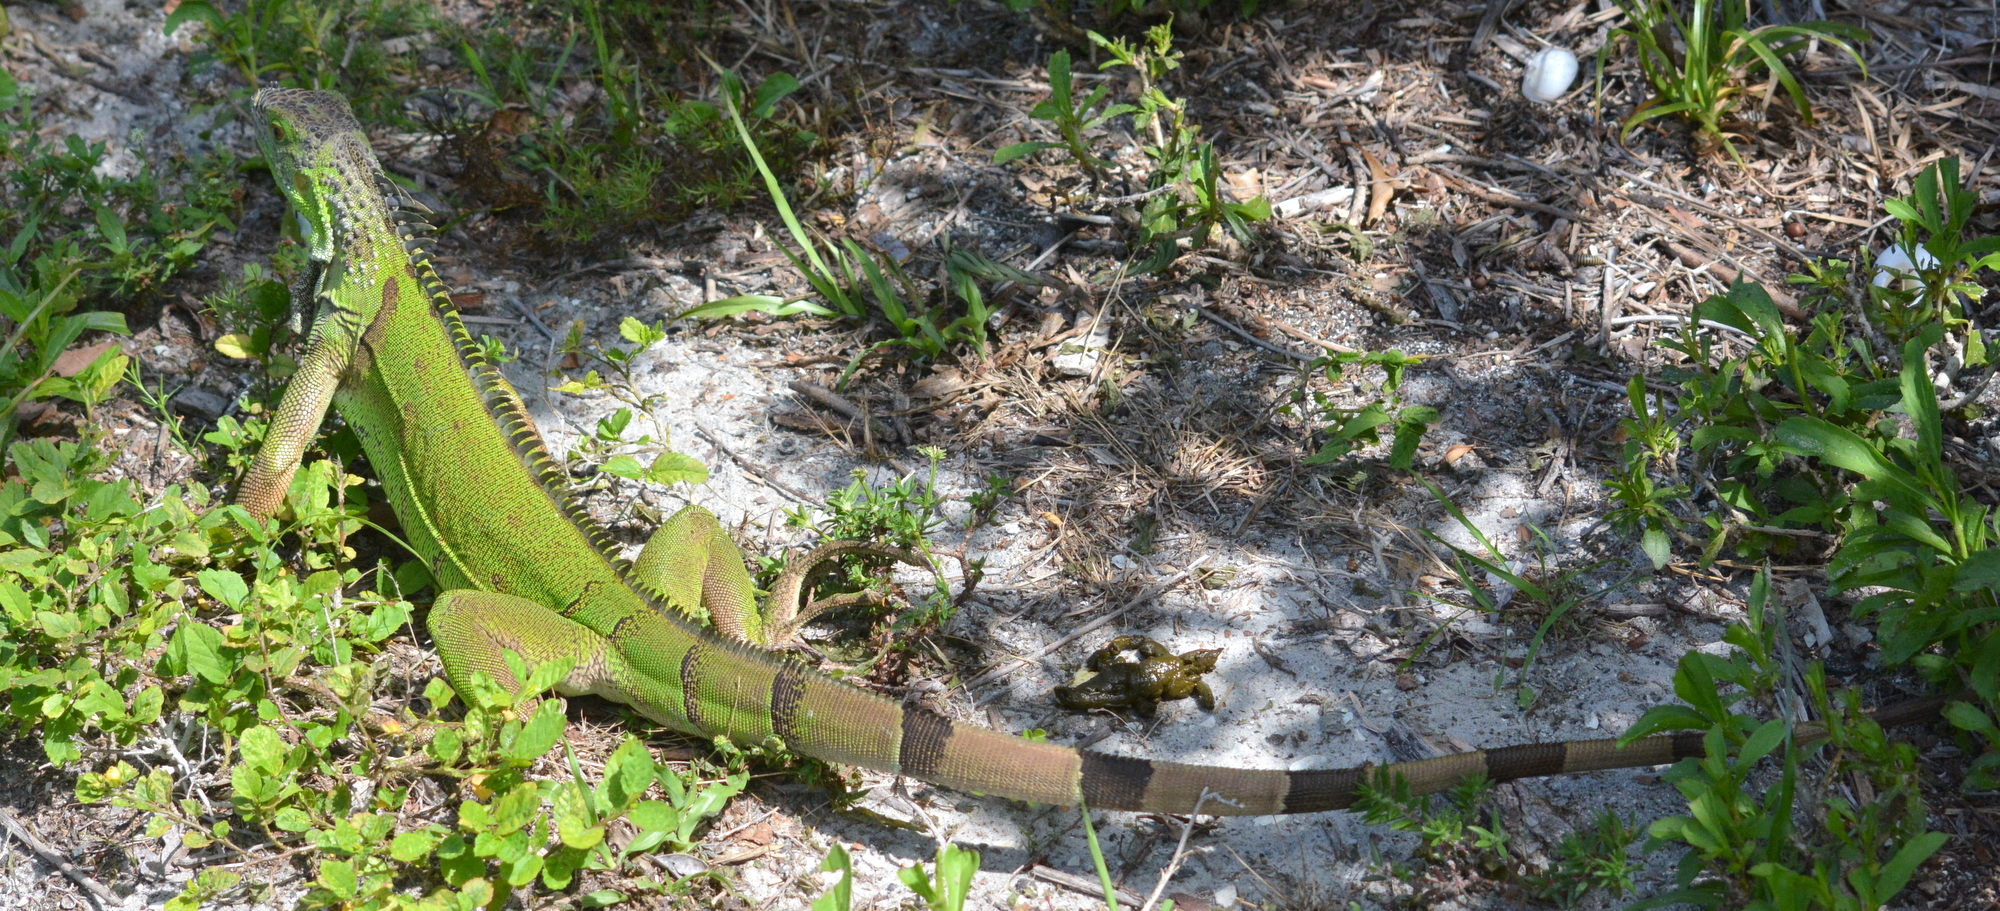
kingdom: Animalia
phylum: Chordata
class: Squamata
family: Iguanidae
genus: Iguana
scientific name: Iguana iguana
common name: Green iguana
